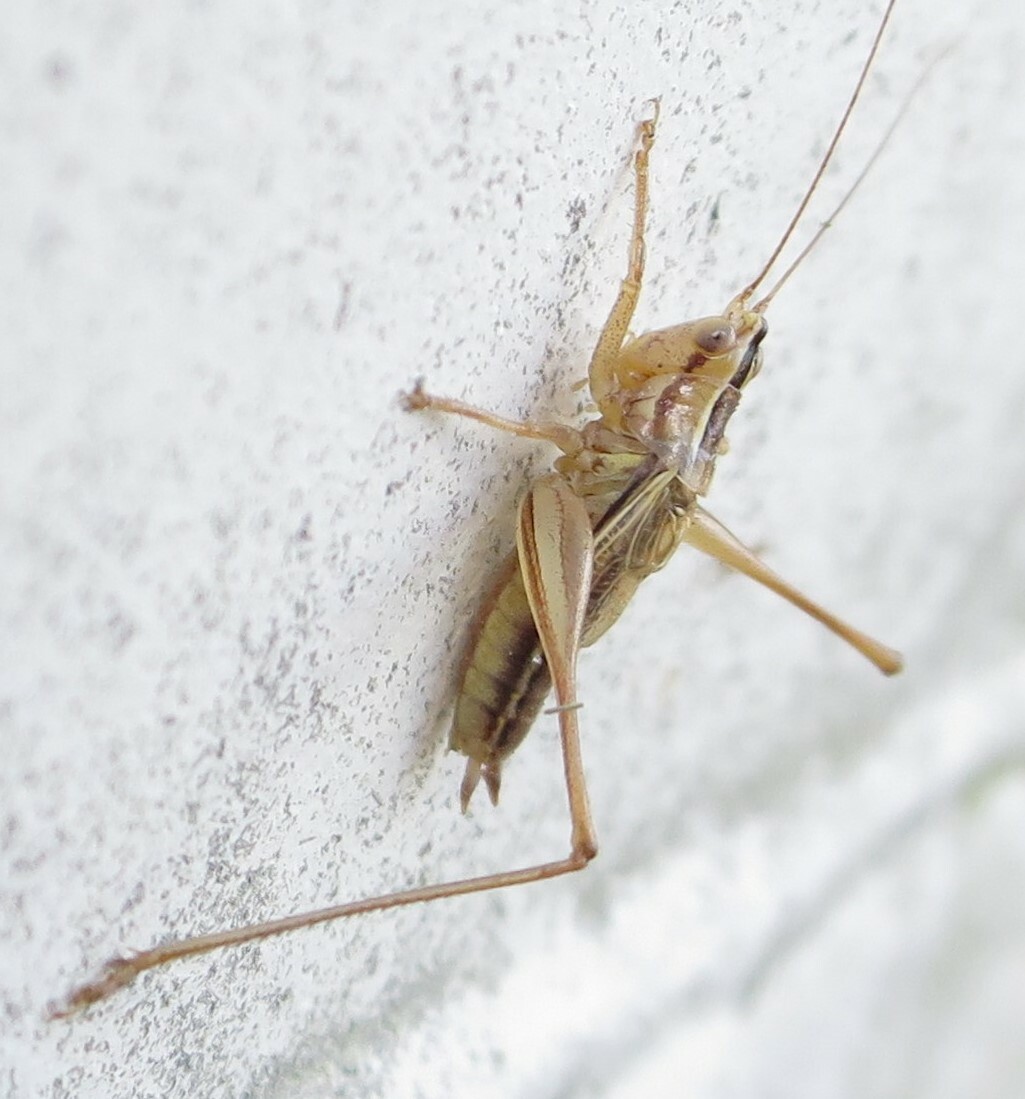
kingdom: Animalia
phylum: Arthropoda
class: Insecta
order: Orthoptera
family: Tettigoniidae
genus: Conocephalus
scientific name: Conocephalus bilineatus
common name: Small meadow katydid
